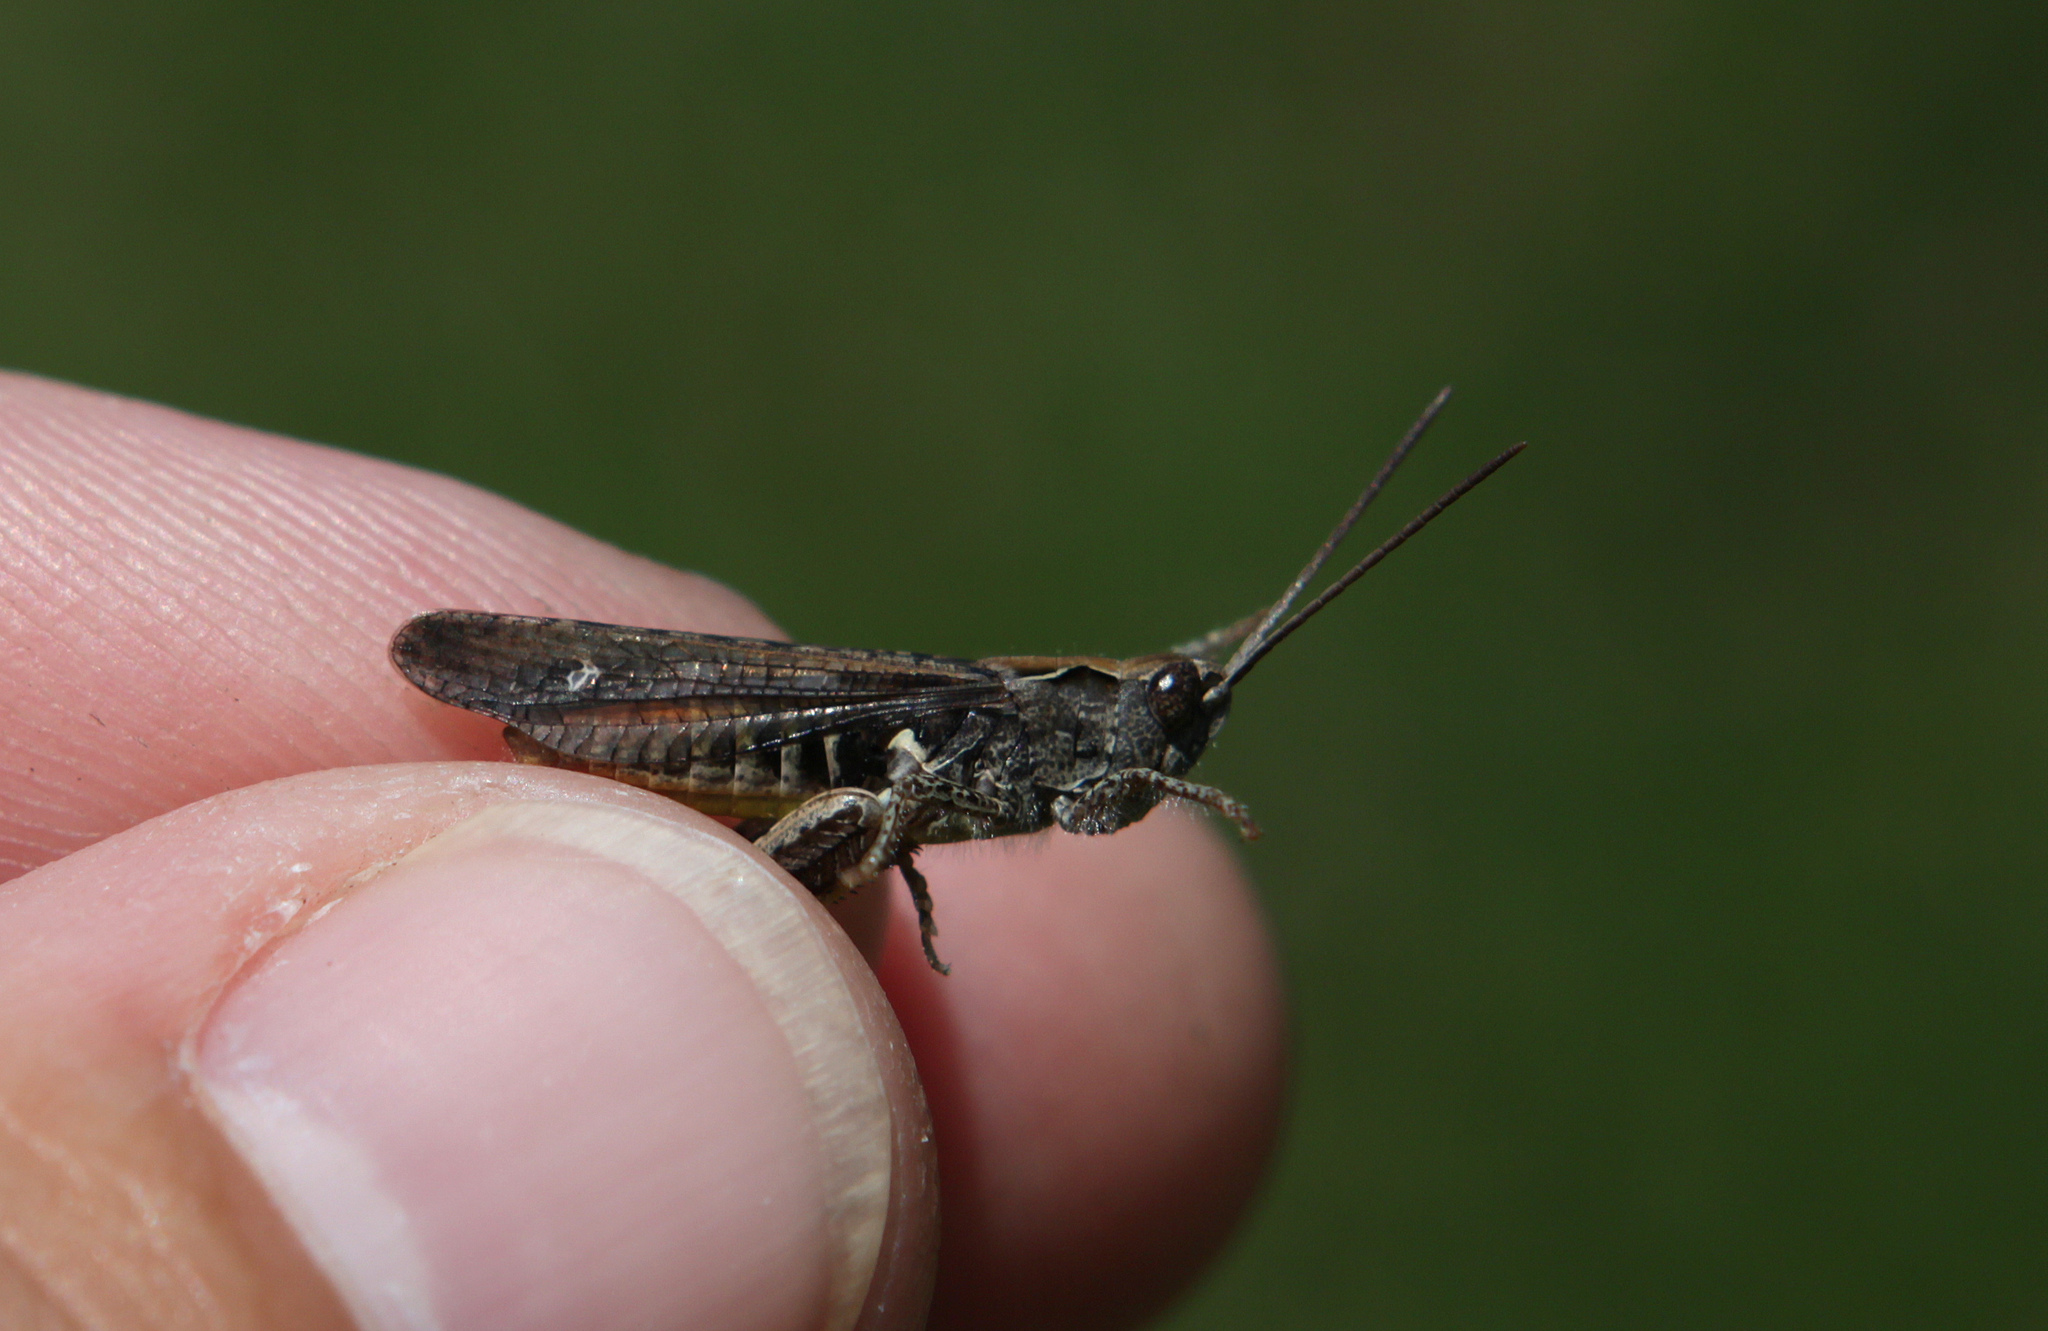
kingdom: Animalia
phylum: Arthropoda
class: Insecta
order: Orthoptera
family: Acrididae
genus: Chorthippus
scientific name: Chorthippus biguttulus
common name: Bow-winged grasshopper
